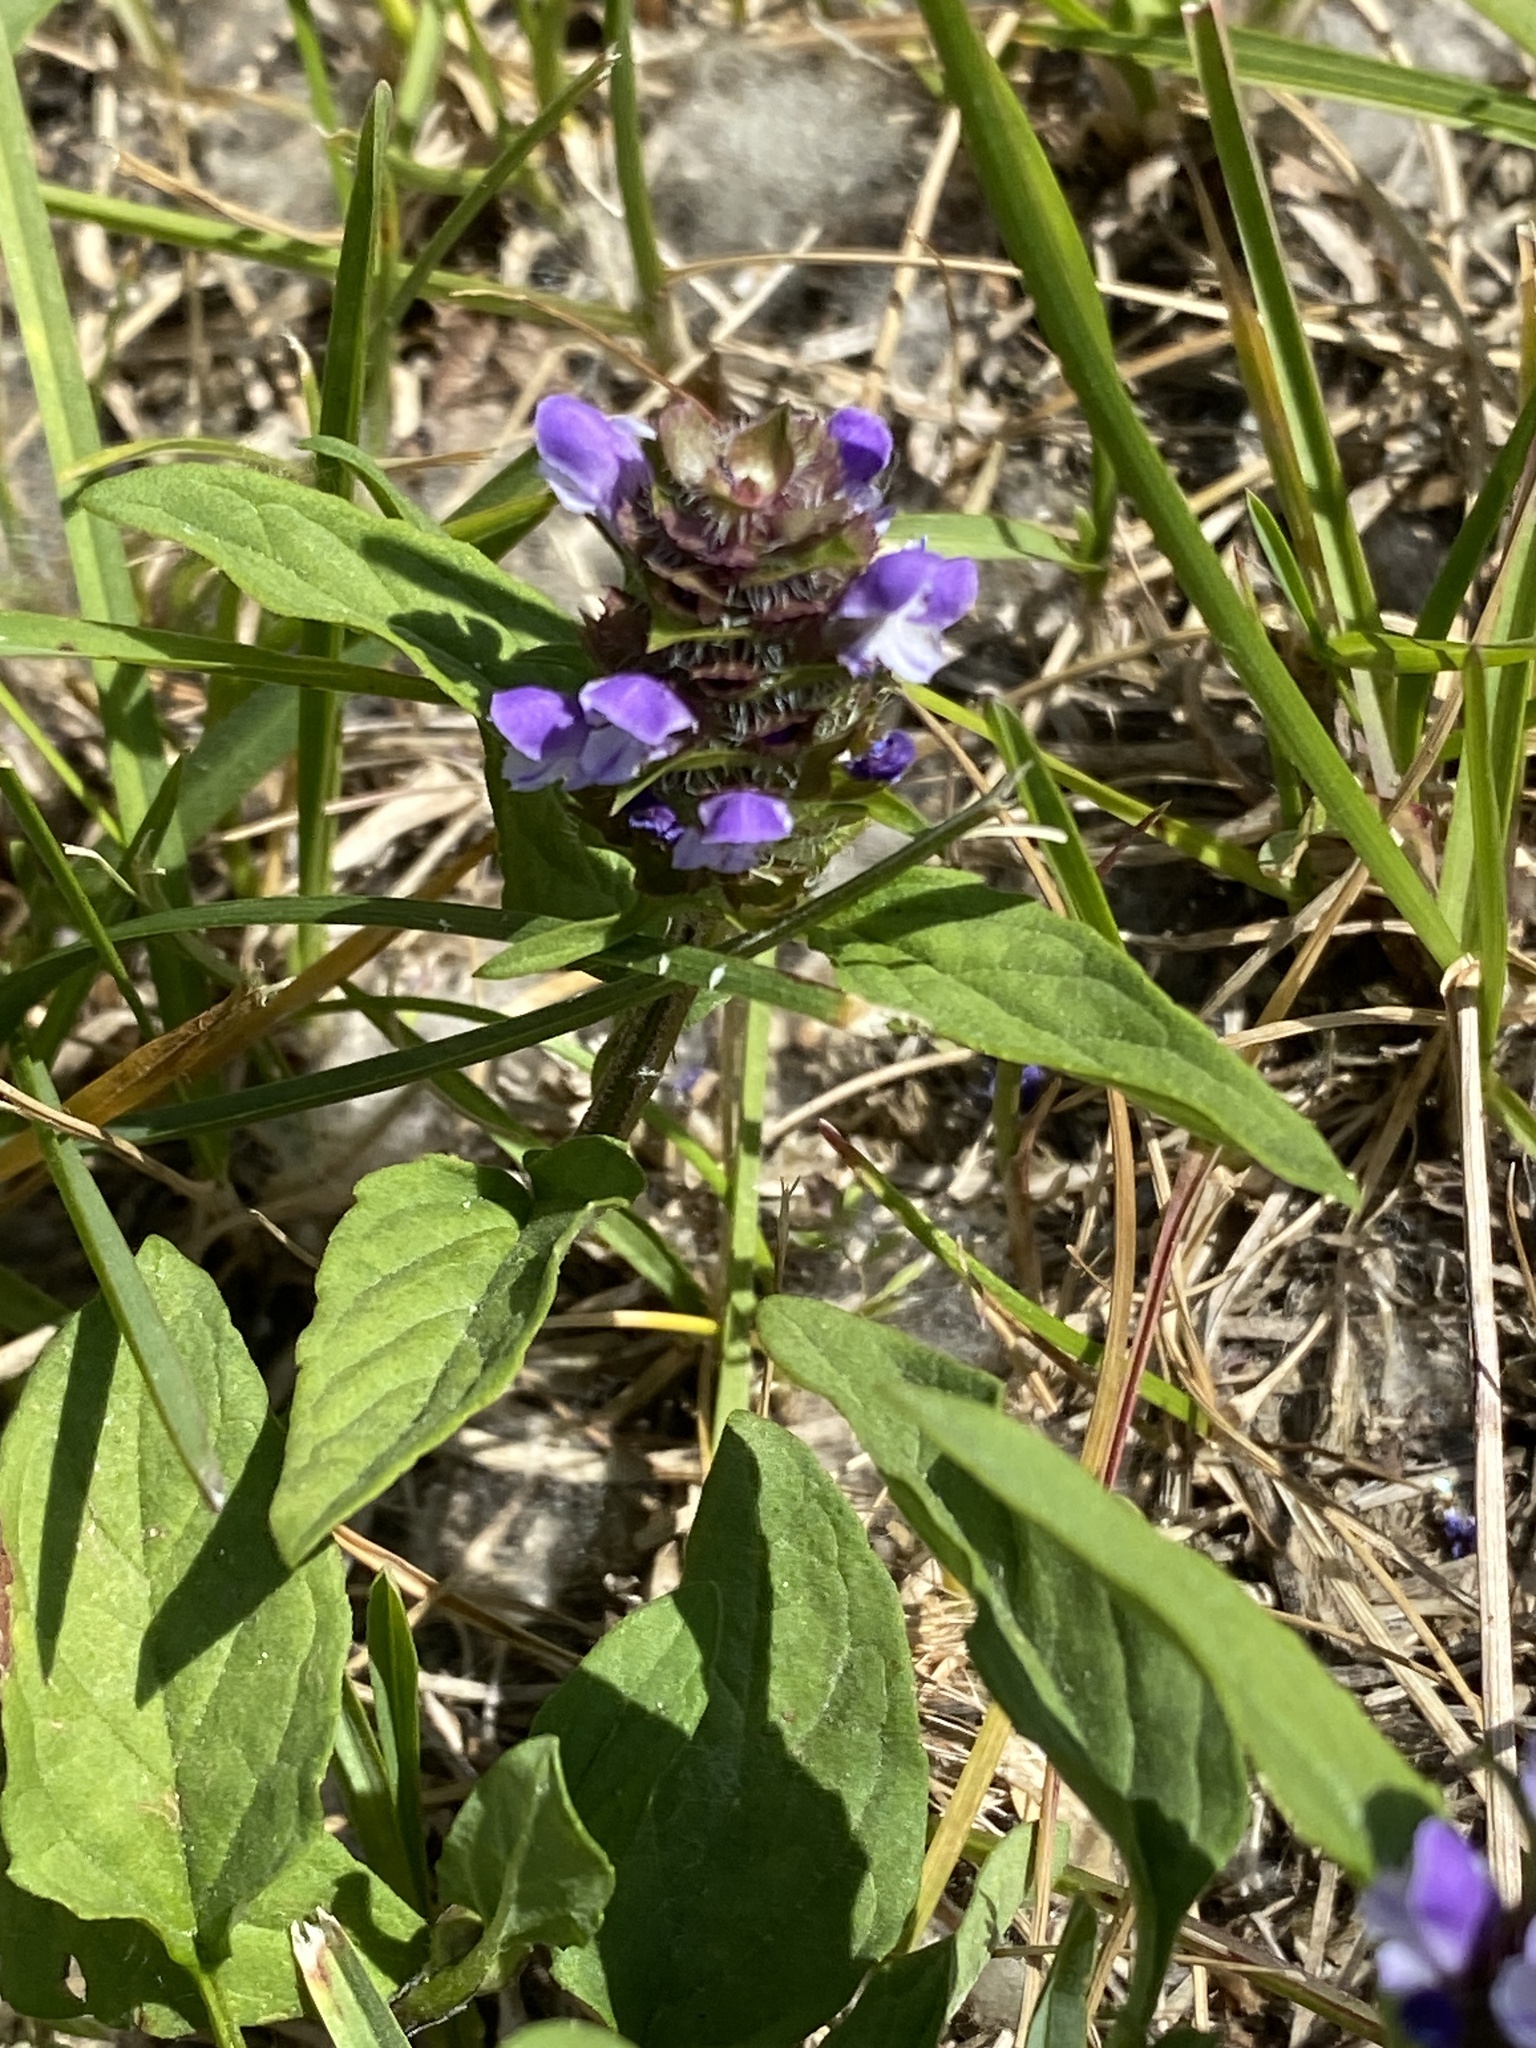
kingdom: Plantae
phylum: Tracheophyta
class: Magnoliopsida
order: Lamiales
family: Lamiaceae
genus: Prunella
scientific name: Prunella vulgaris
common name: Heal-all
